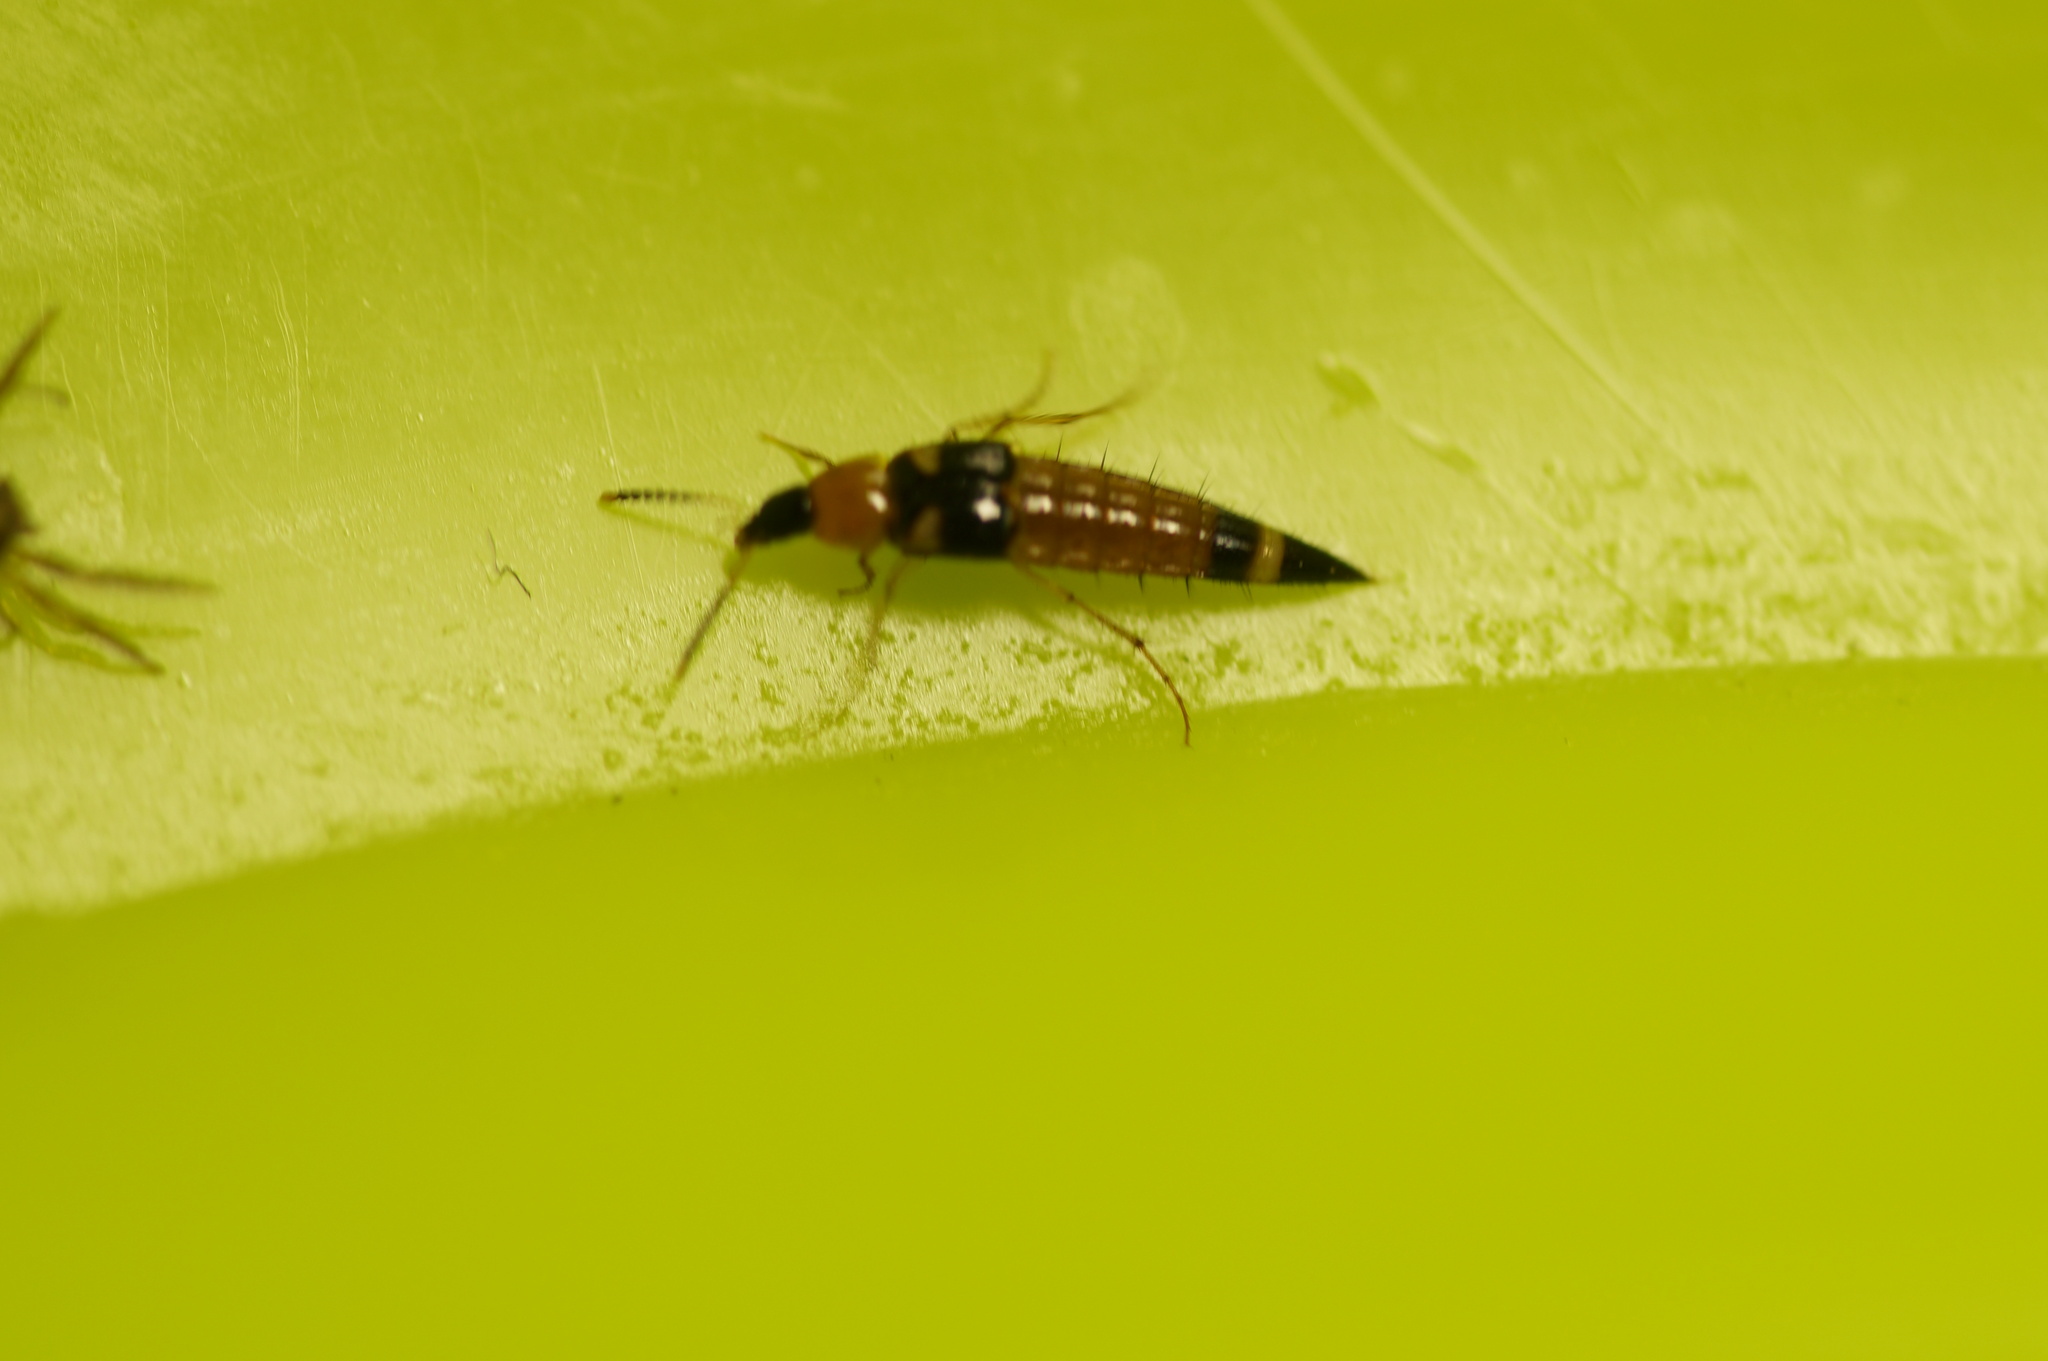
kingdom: Animalia
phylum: Arthropoda
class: Insecta
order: Coleoptera
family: Staphylinidae
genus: Bobitobus
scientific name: Bobitobus lunulatus
